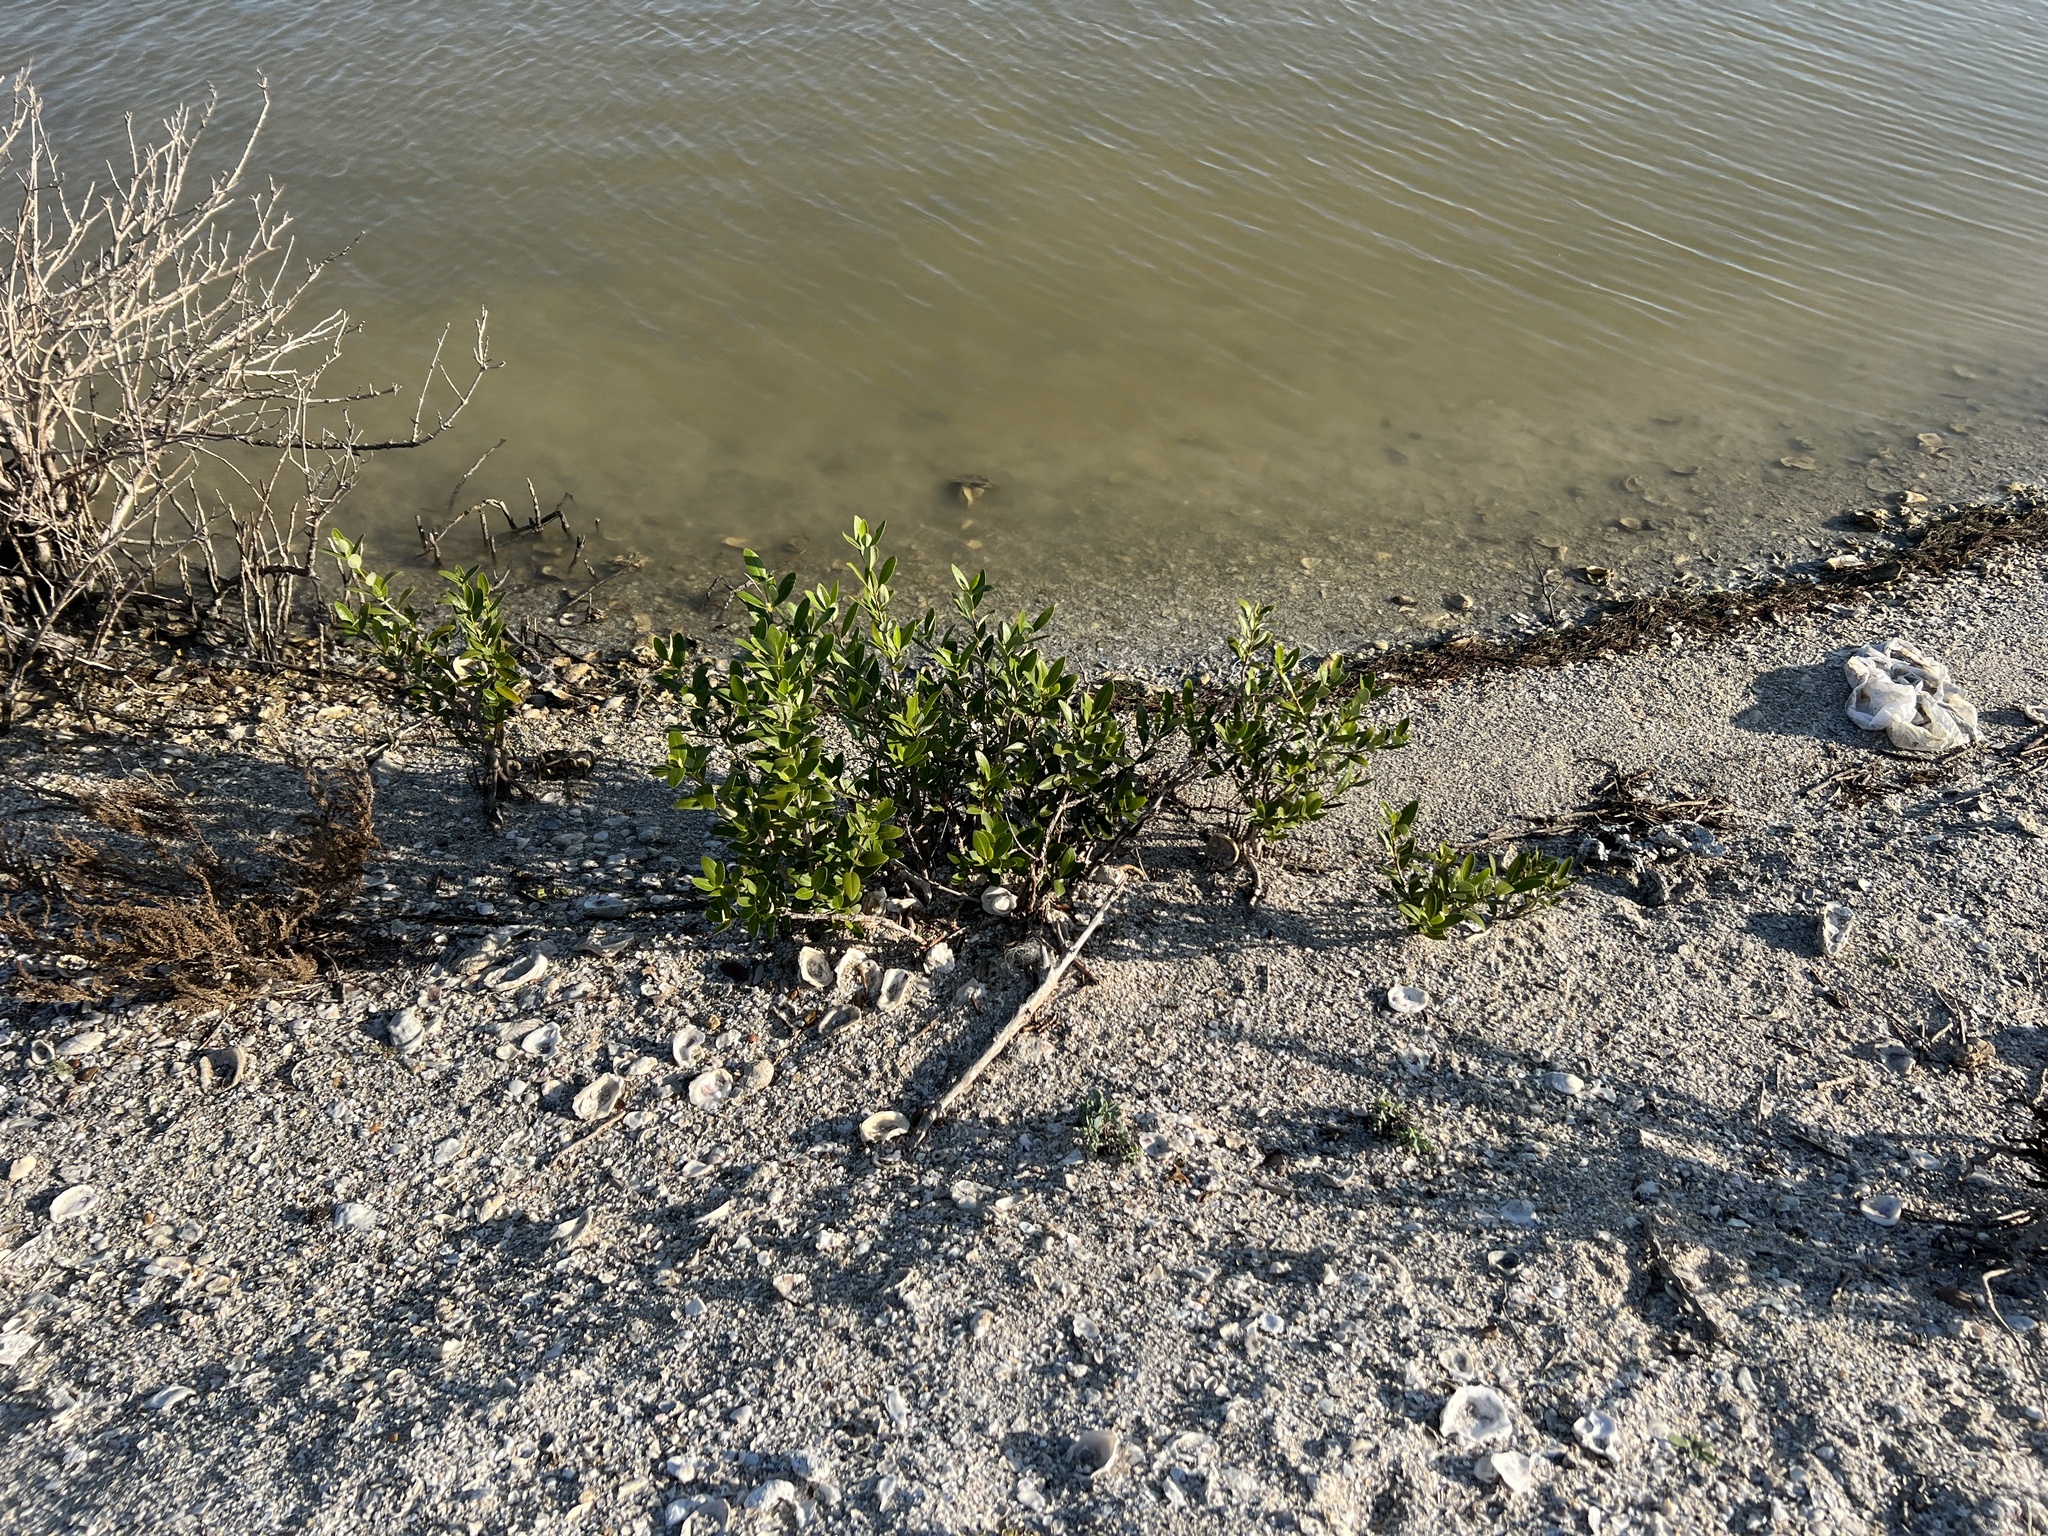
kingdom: Plantae
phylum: Tracheophyta
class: Magnoliopsida
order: Lamiales
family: Acanthaceae
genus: Avicennia
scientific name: Avicennia germinans
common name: Black mangrove
